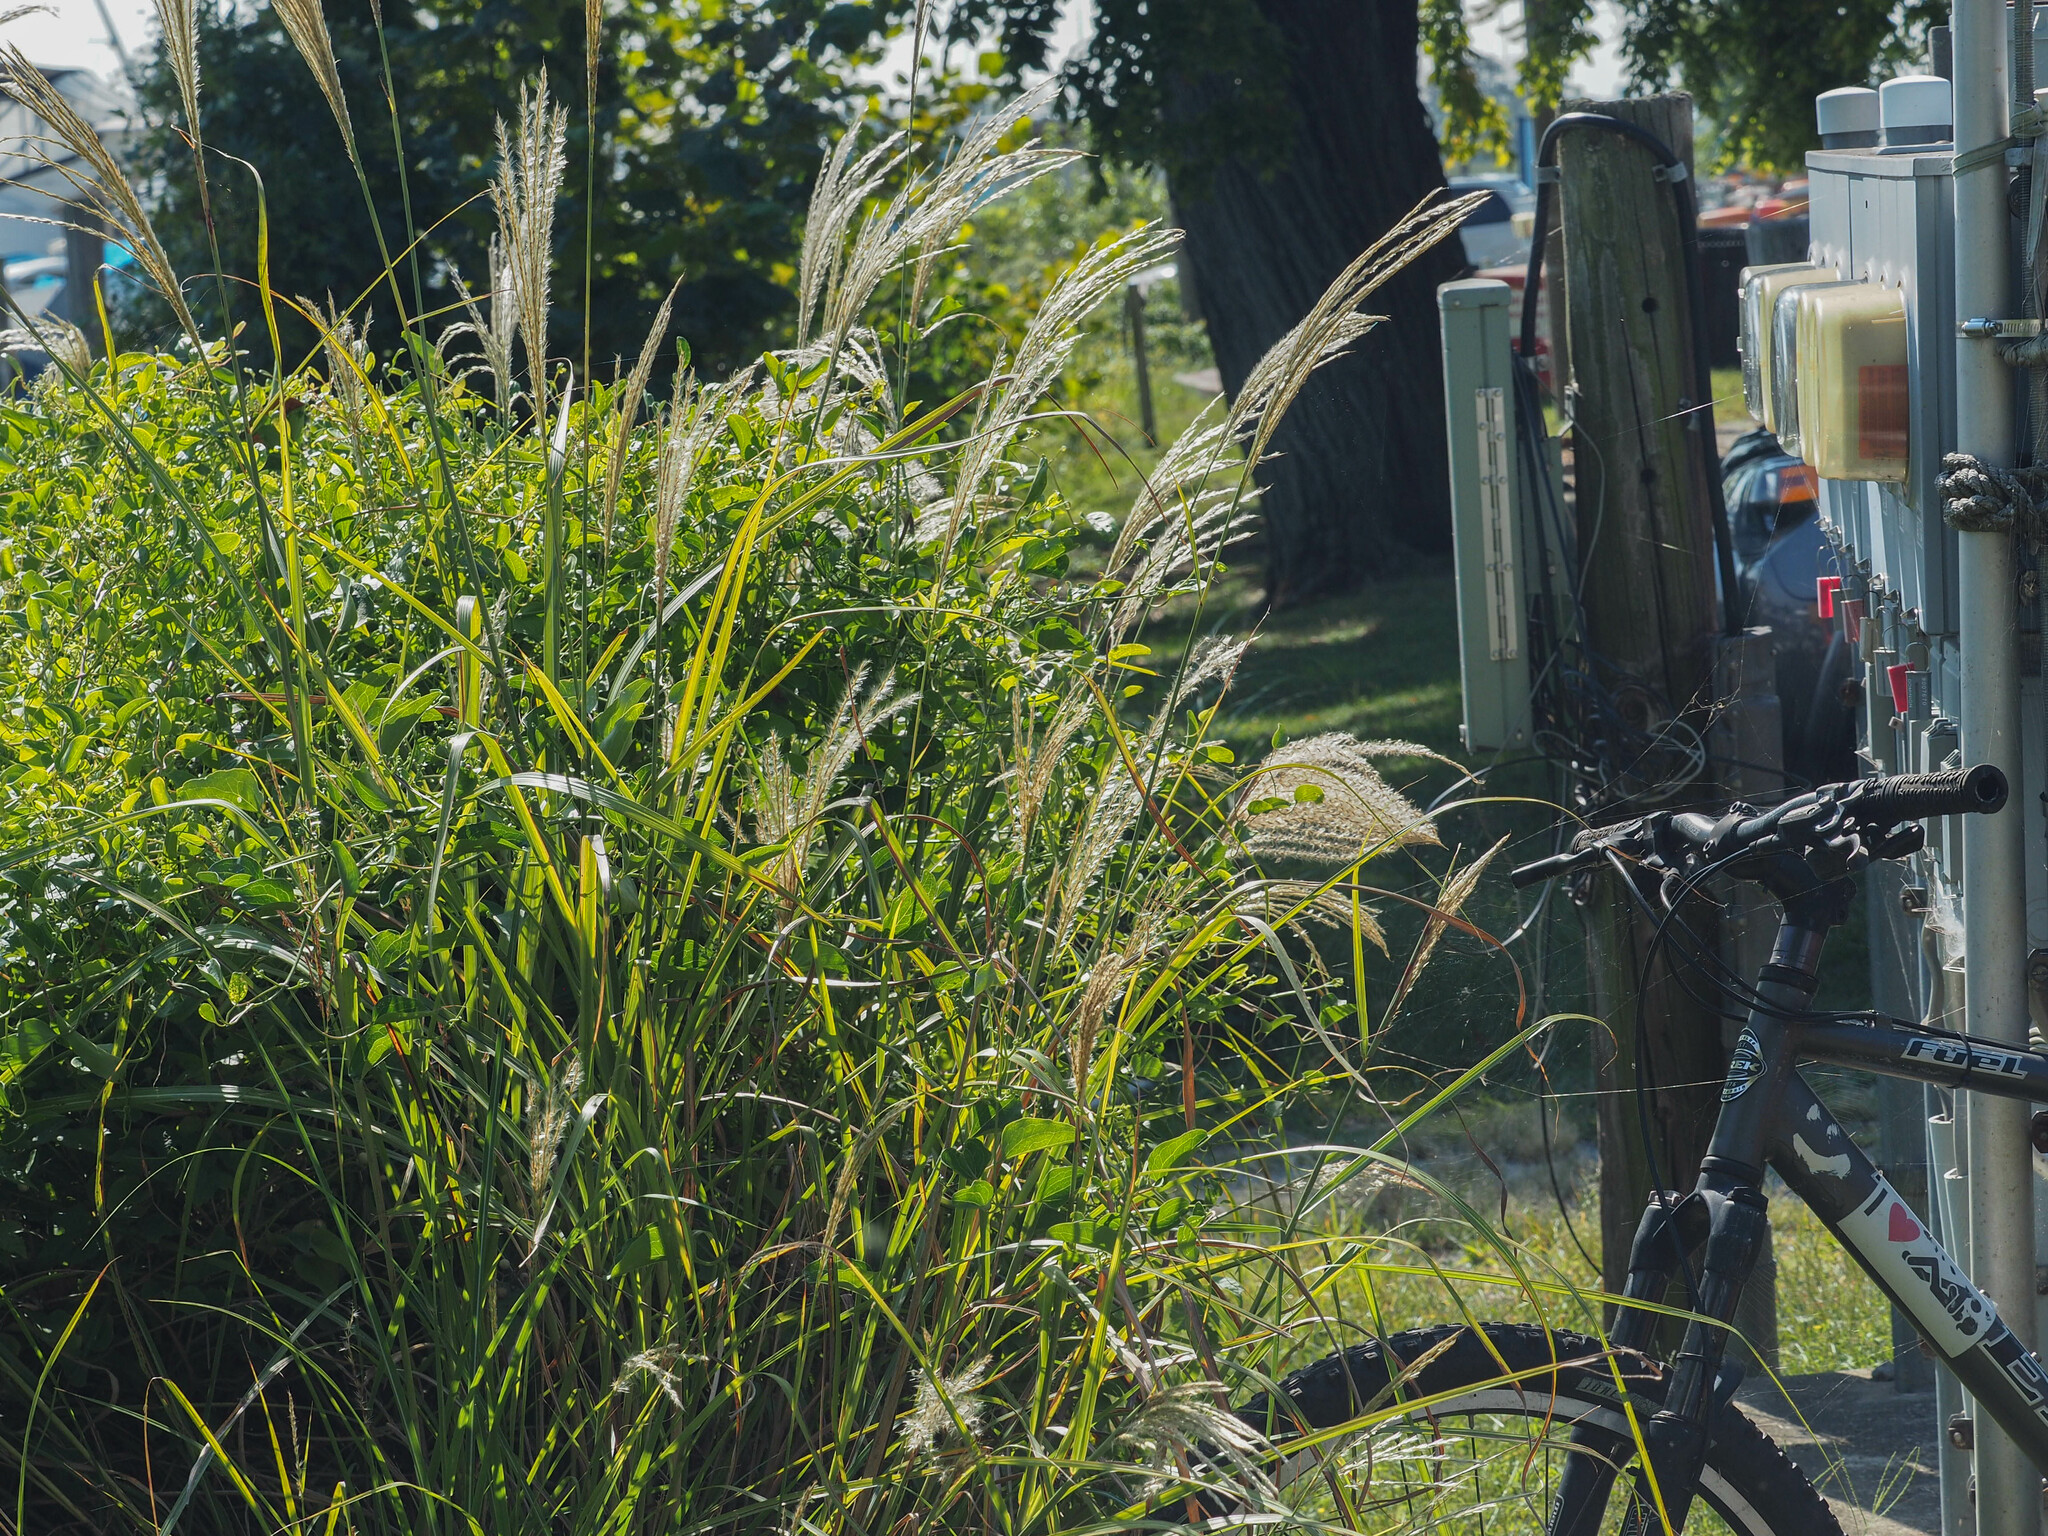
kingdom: Plantae
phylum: Tracheophyta
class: Liliopsida
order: Poales
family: Poaceae
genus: Miscanthus
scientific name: Miscanthus sinensis
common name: Chinese silvergrass
